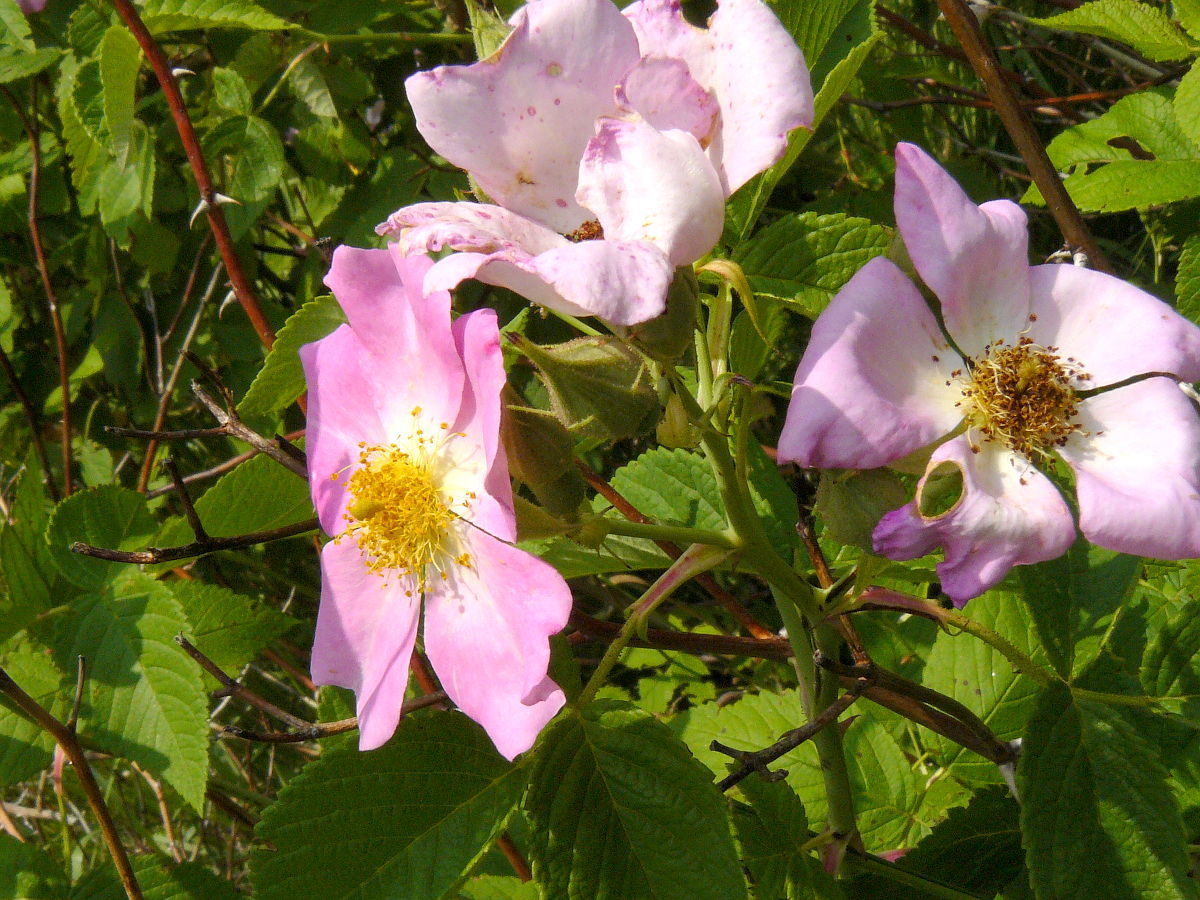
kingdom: Plantae
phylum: Tracheophyta
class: Magnoliopsida
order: Rosales
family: Rosaceae
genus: Rosa
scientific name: Rosa setigera
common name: Prairie rose
